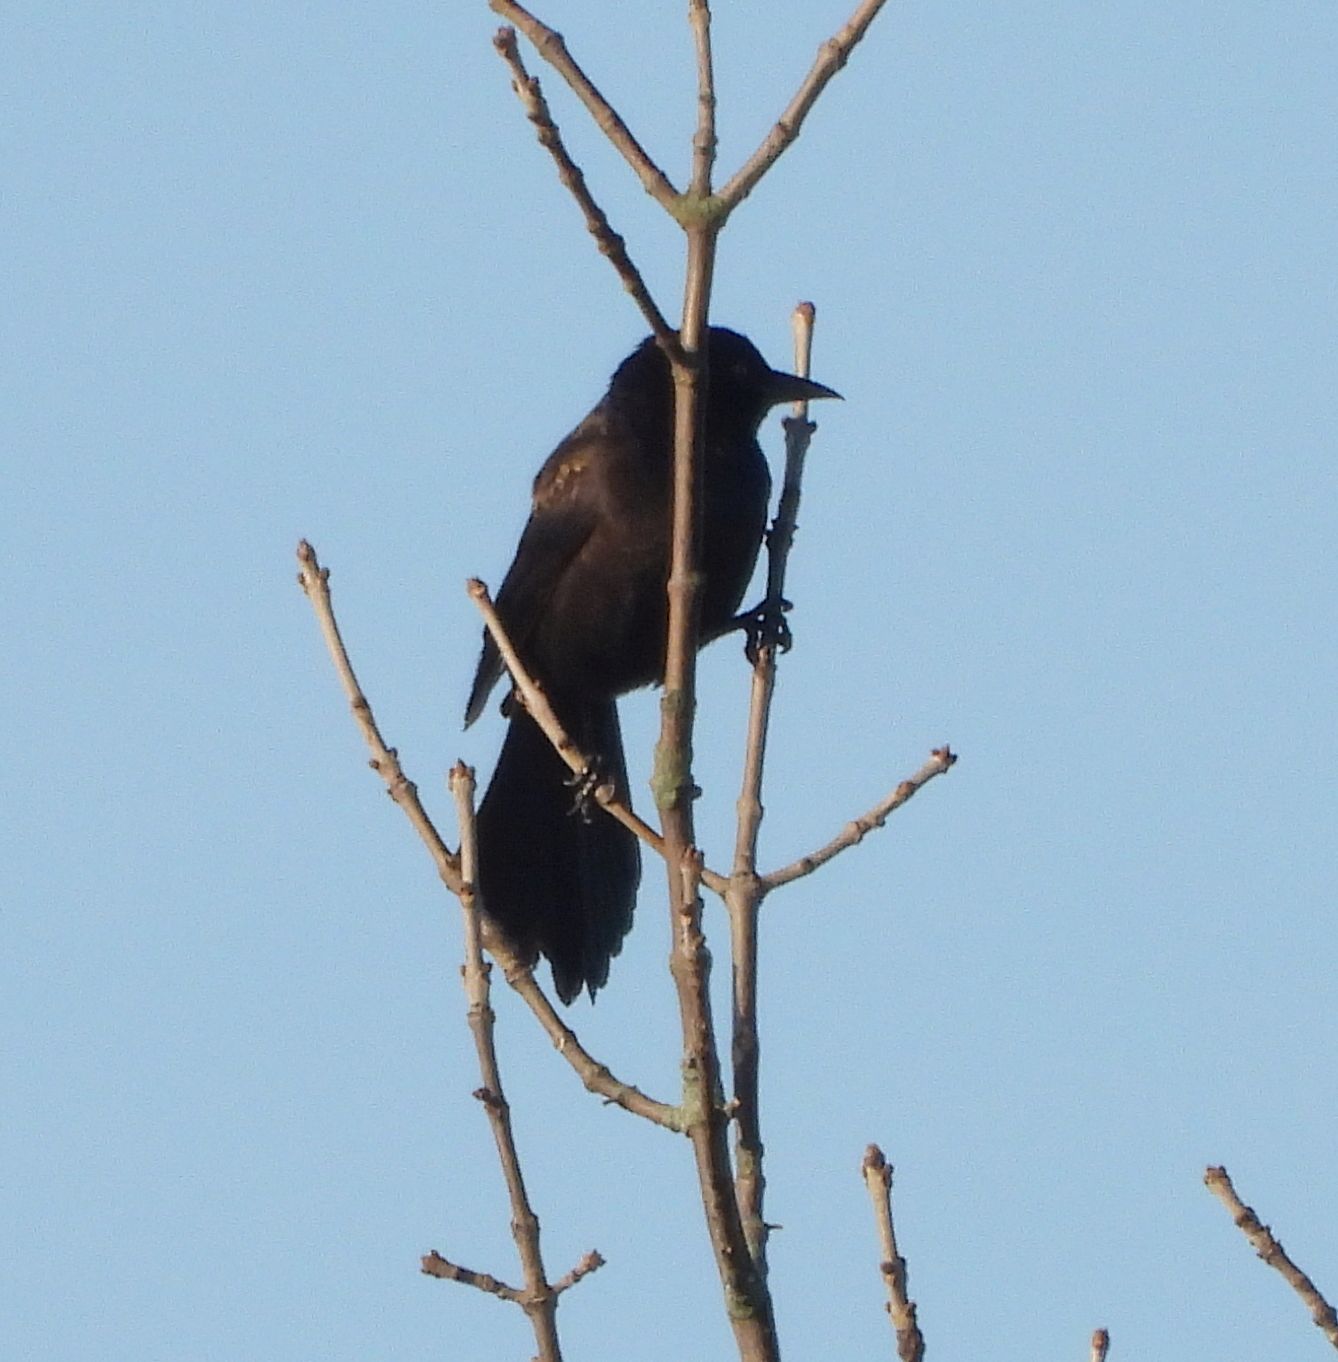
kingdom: Animalia
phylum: Chordata
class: Aves
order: Passeriformes
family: Icteridae
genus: Quiscalus
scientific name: Quiscalus quiscula
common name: Common grackle
